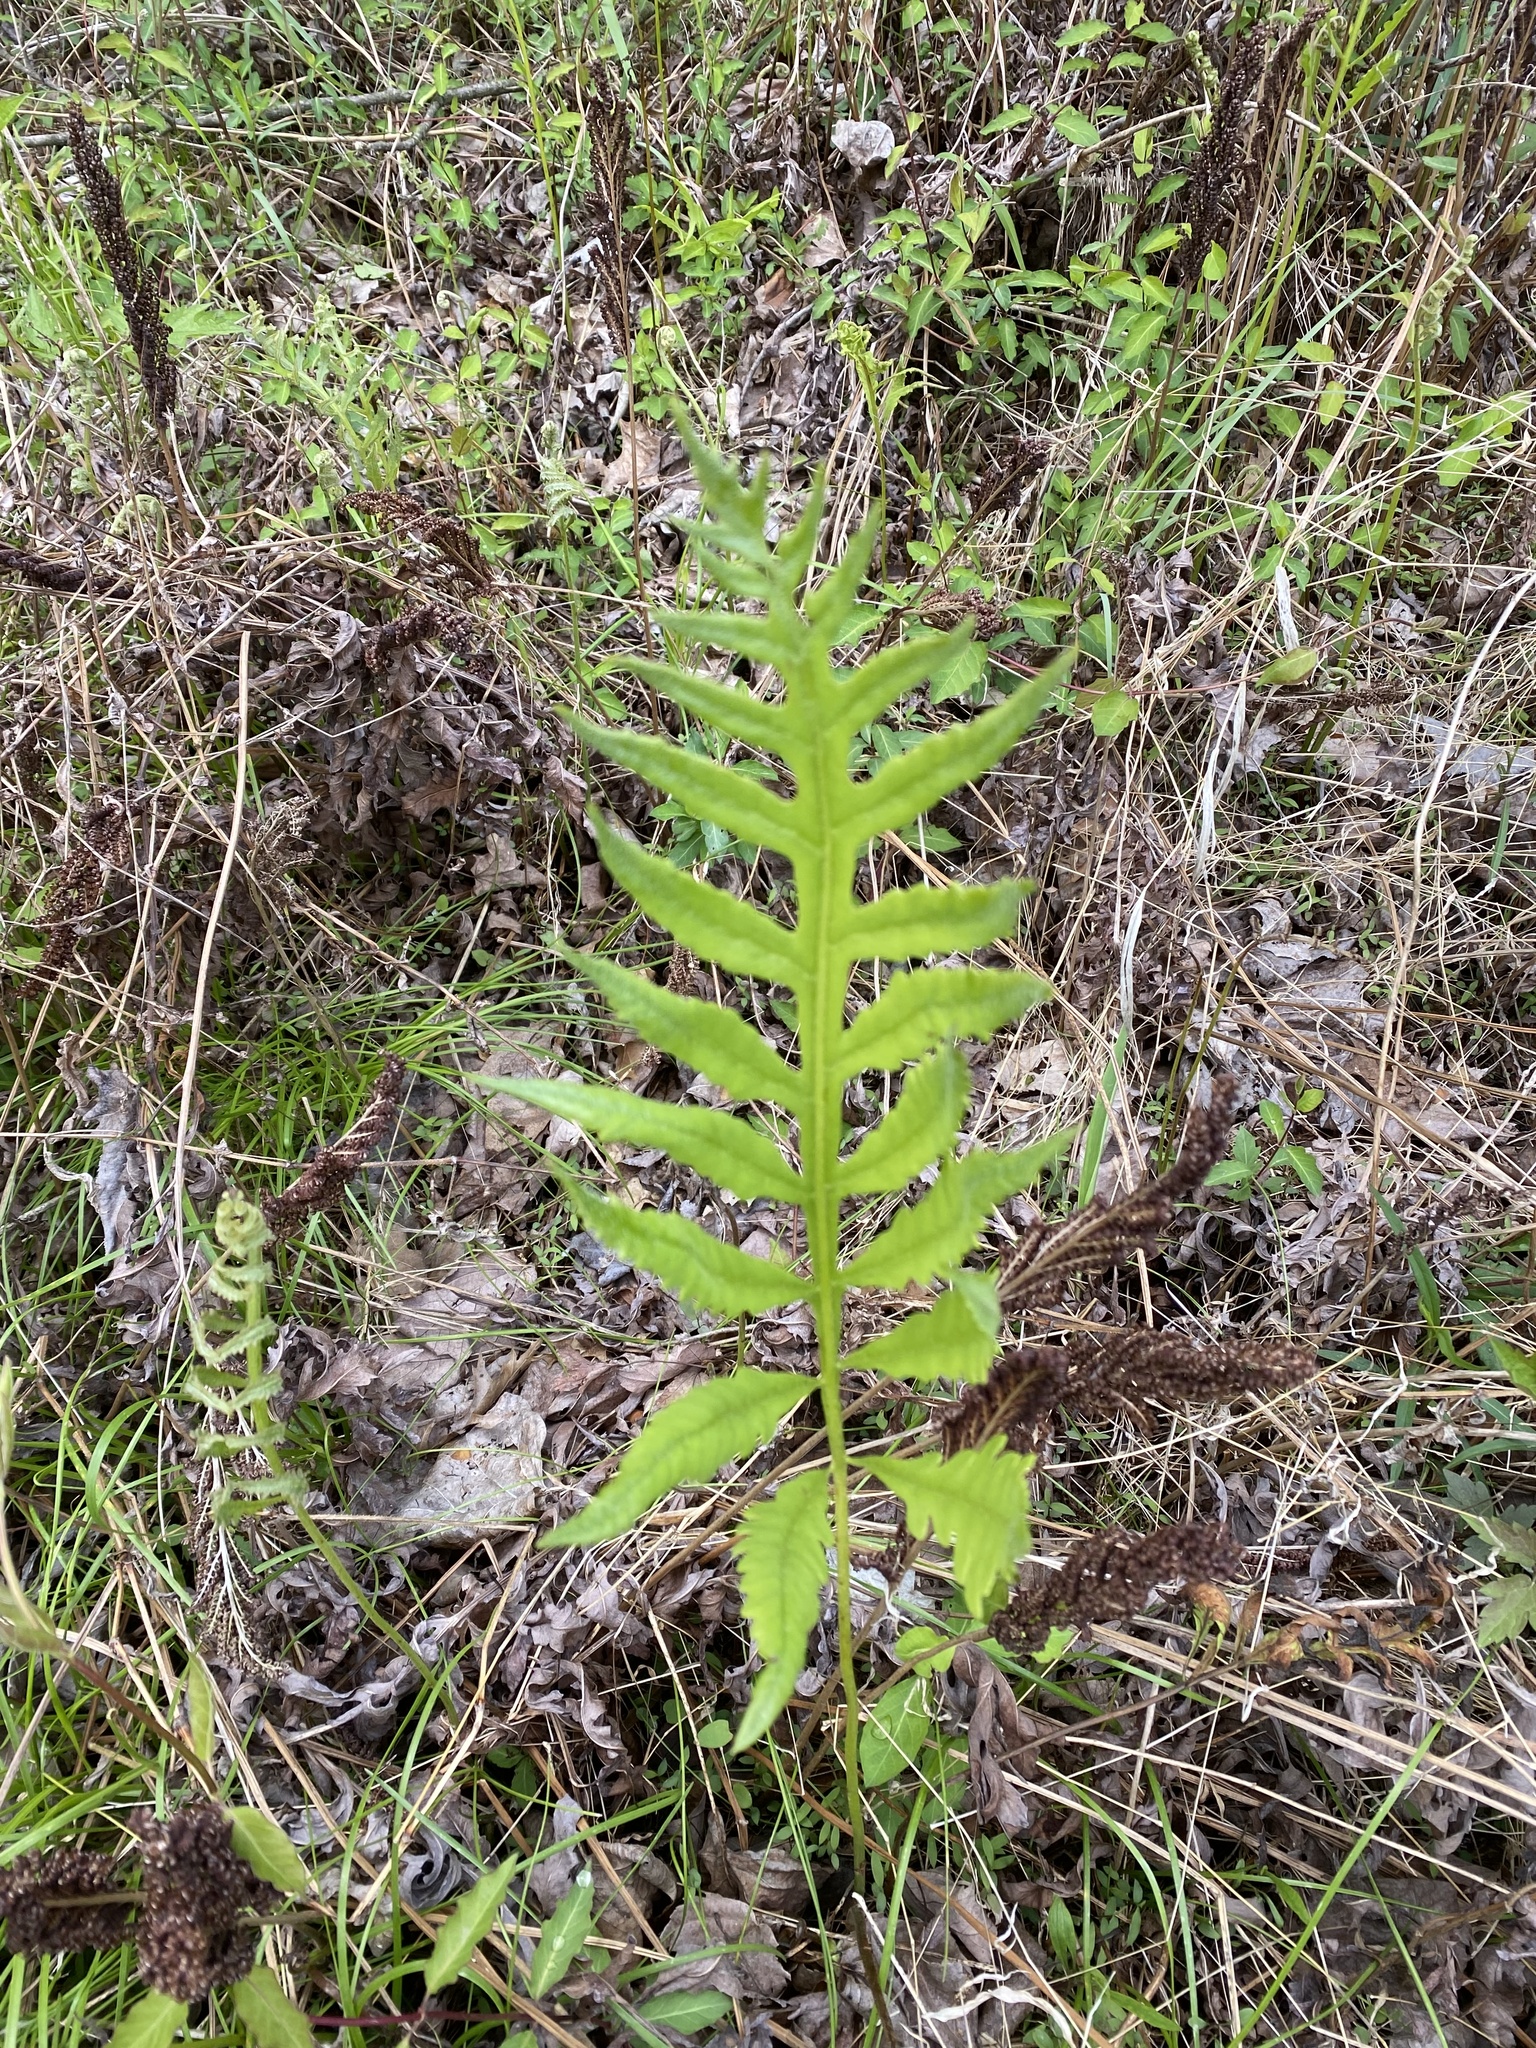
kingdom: Plantae
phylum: Tracheophyta
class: Polypodiopsida
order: Polypodiales
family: Onocleaceae
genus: Onoclea
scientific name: Onoclea sensibilis
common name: Sensitive fern
